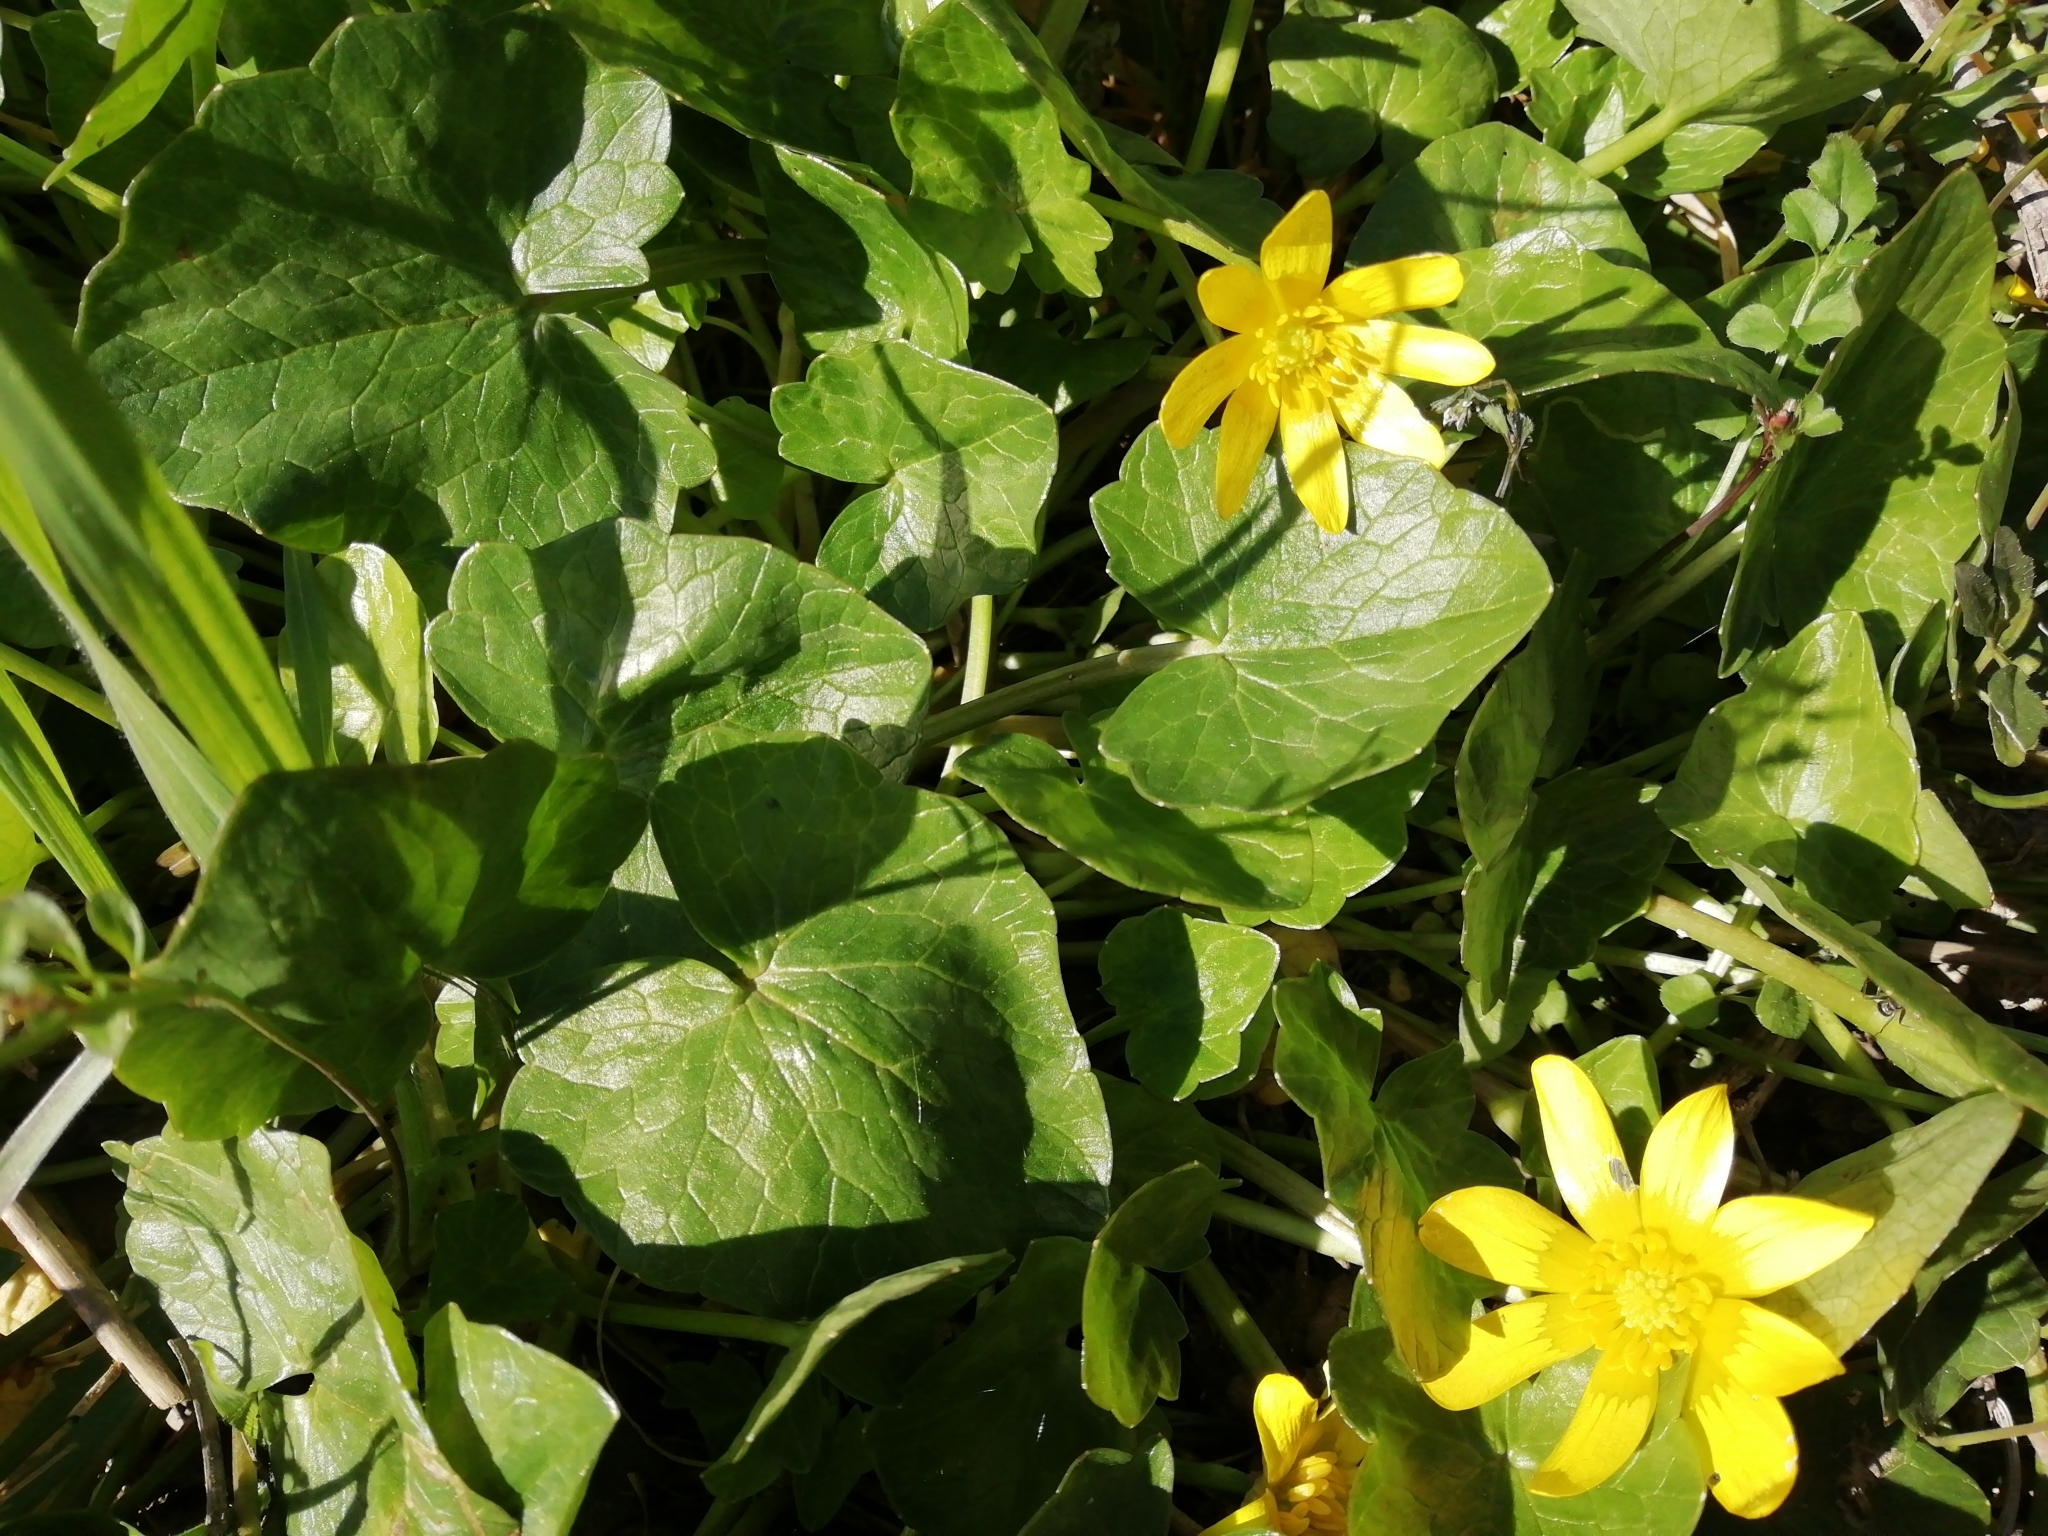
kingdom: Plantae
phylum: Tracheophyta
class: Magnoliopsida
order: Ranunculales
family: Ranunculaceae
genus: Ficaria
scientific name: Ficaria verna
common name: Lesser celandine
